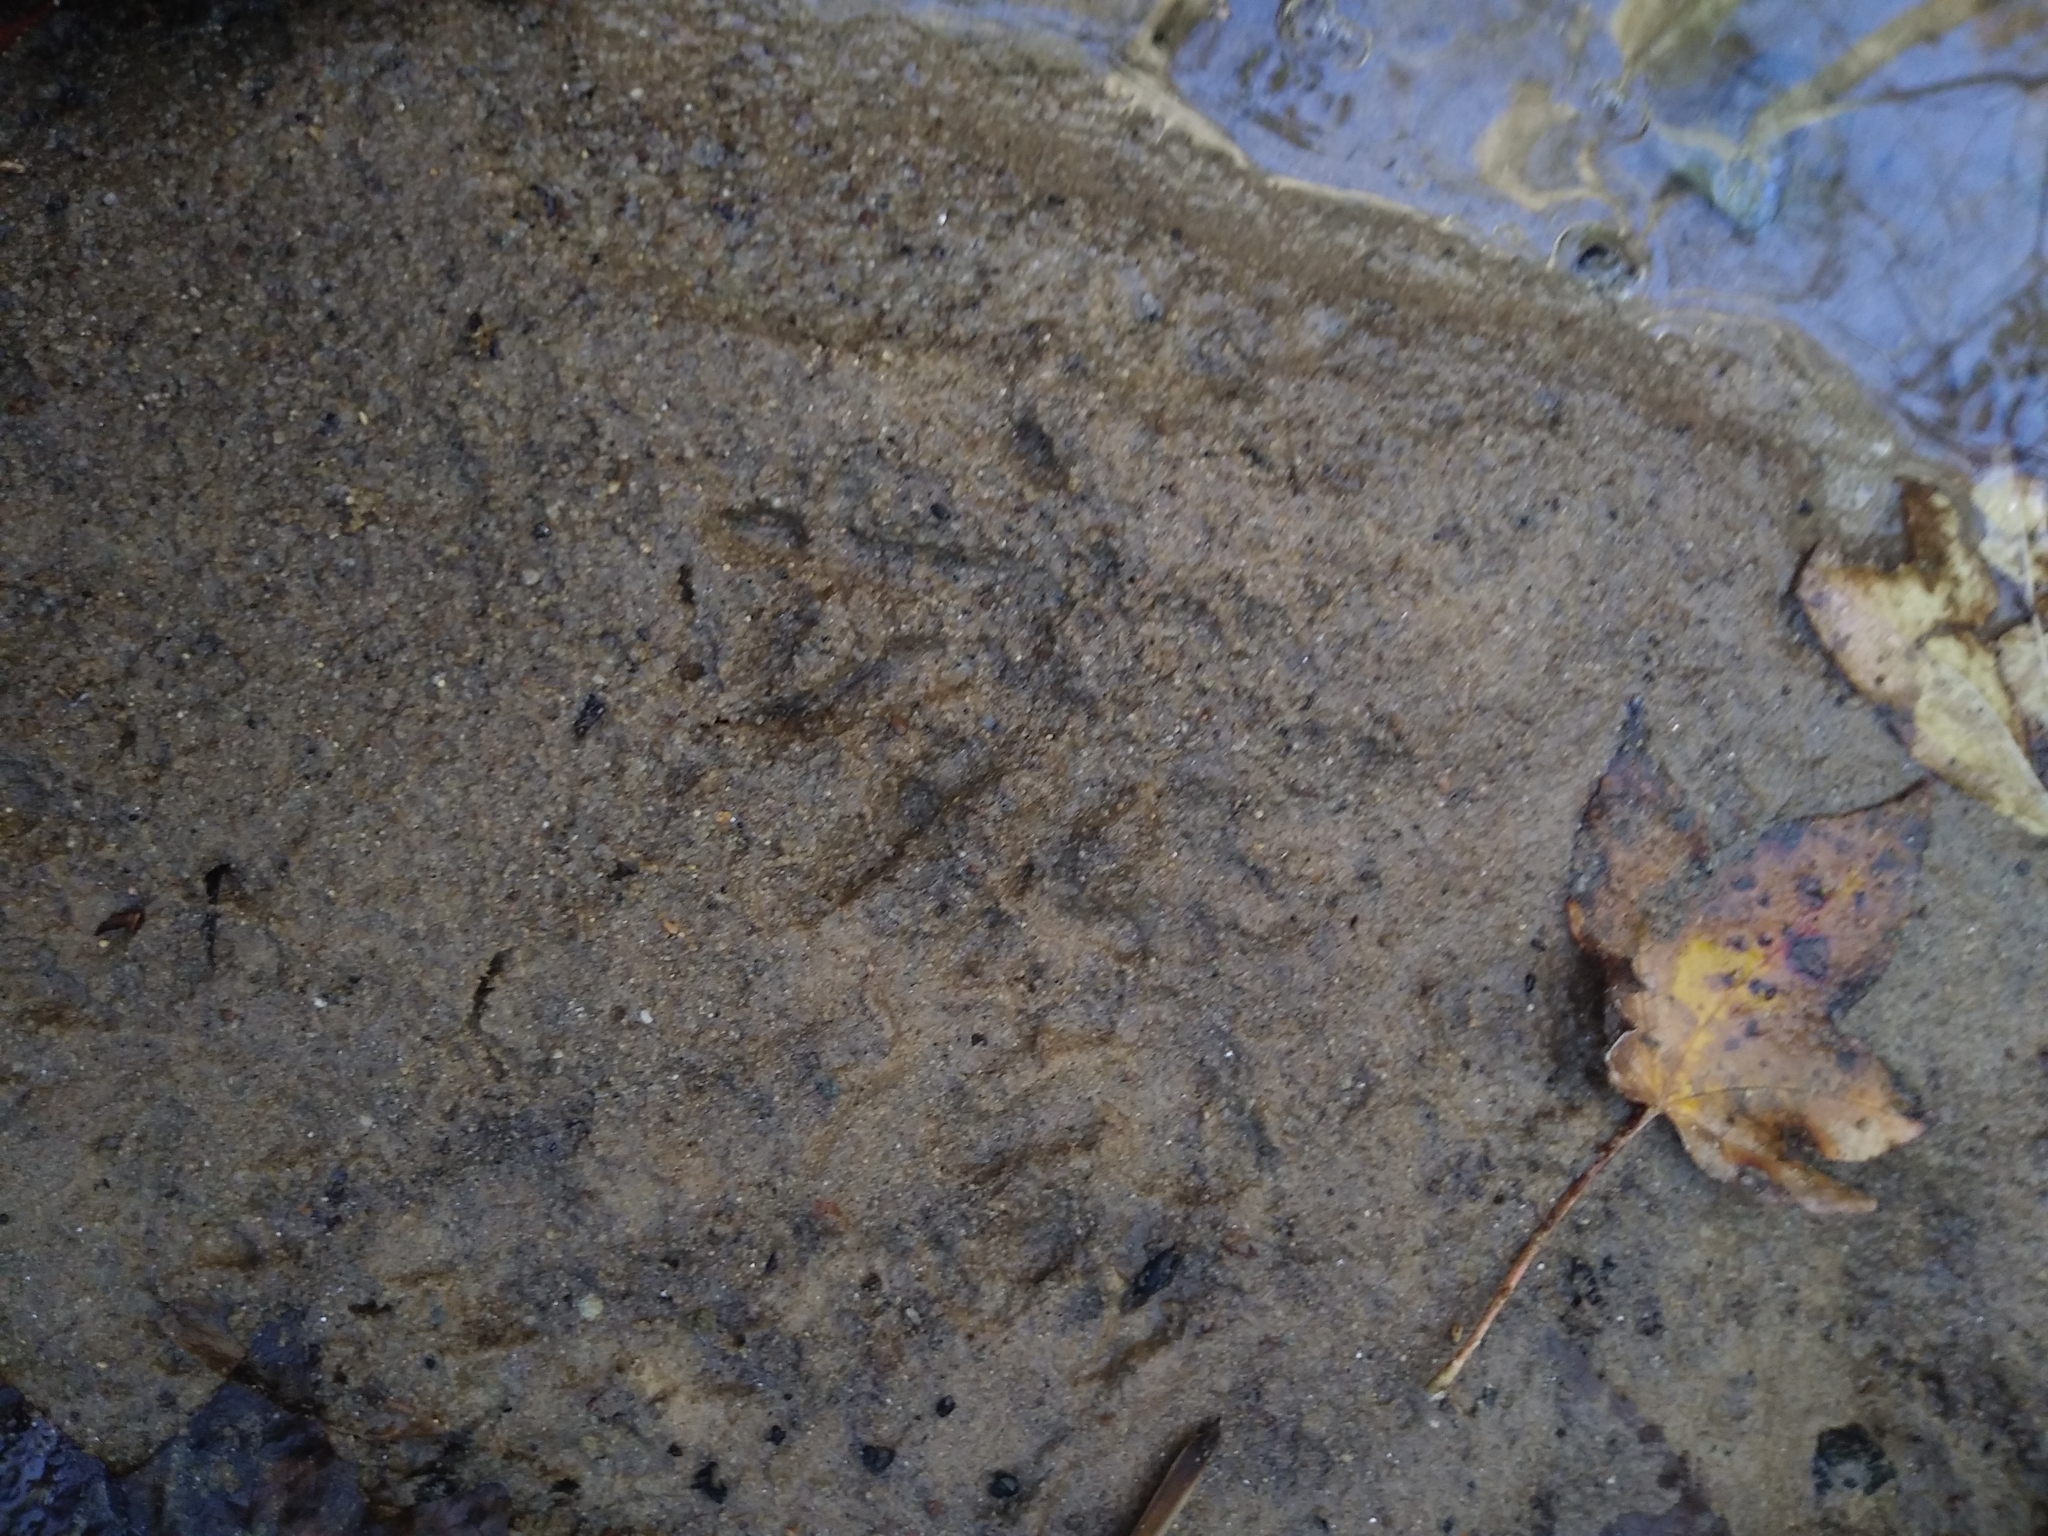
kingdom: Animalia
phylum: Chordata
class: Mammalia
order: Carnivora
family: Procyonidae
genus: Procyon
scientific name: Procyon lotor
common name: Raccoon
